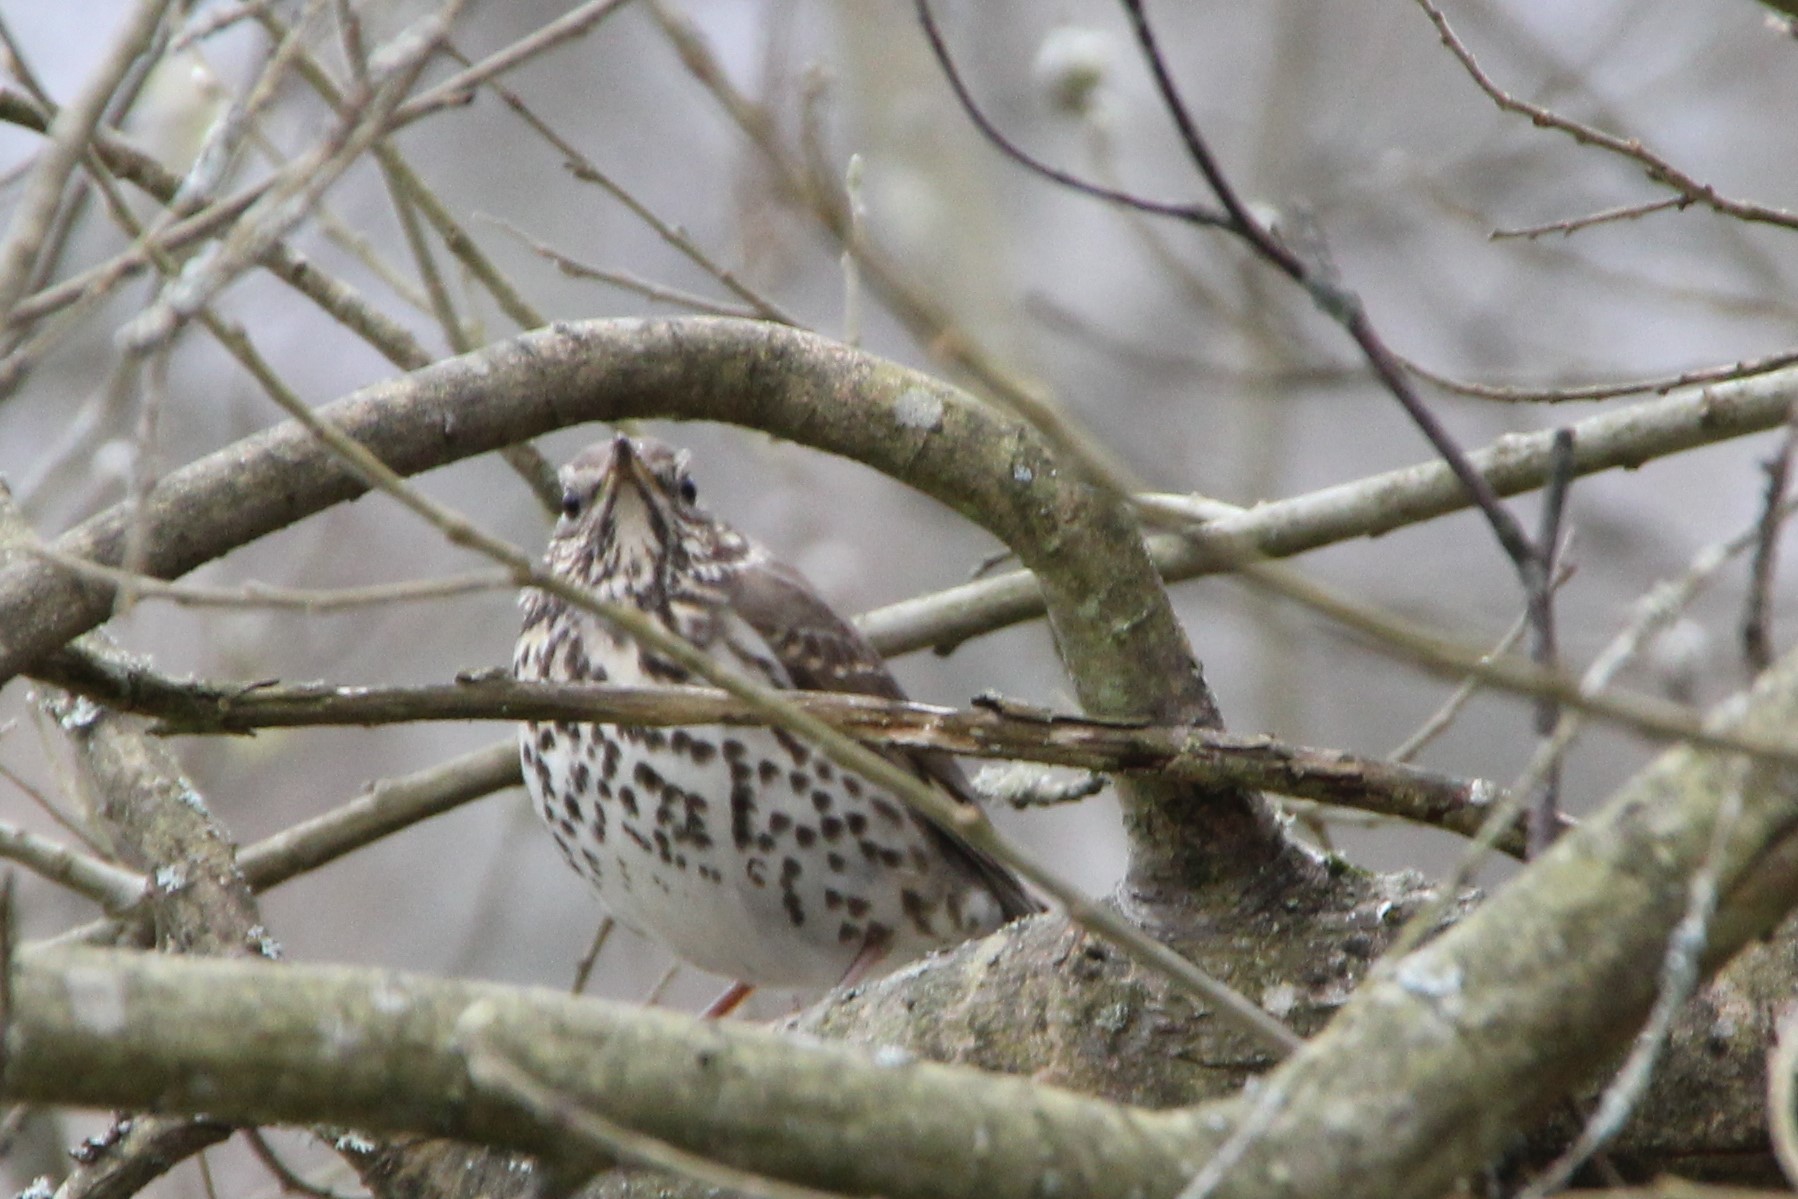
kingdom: Animalia
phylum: Chordata
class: Aves
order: Passeriformes
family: Turdidae
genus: Turdus
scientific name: Turdus philomelos
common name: Song thrush
